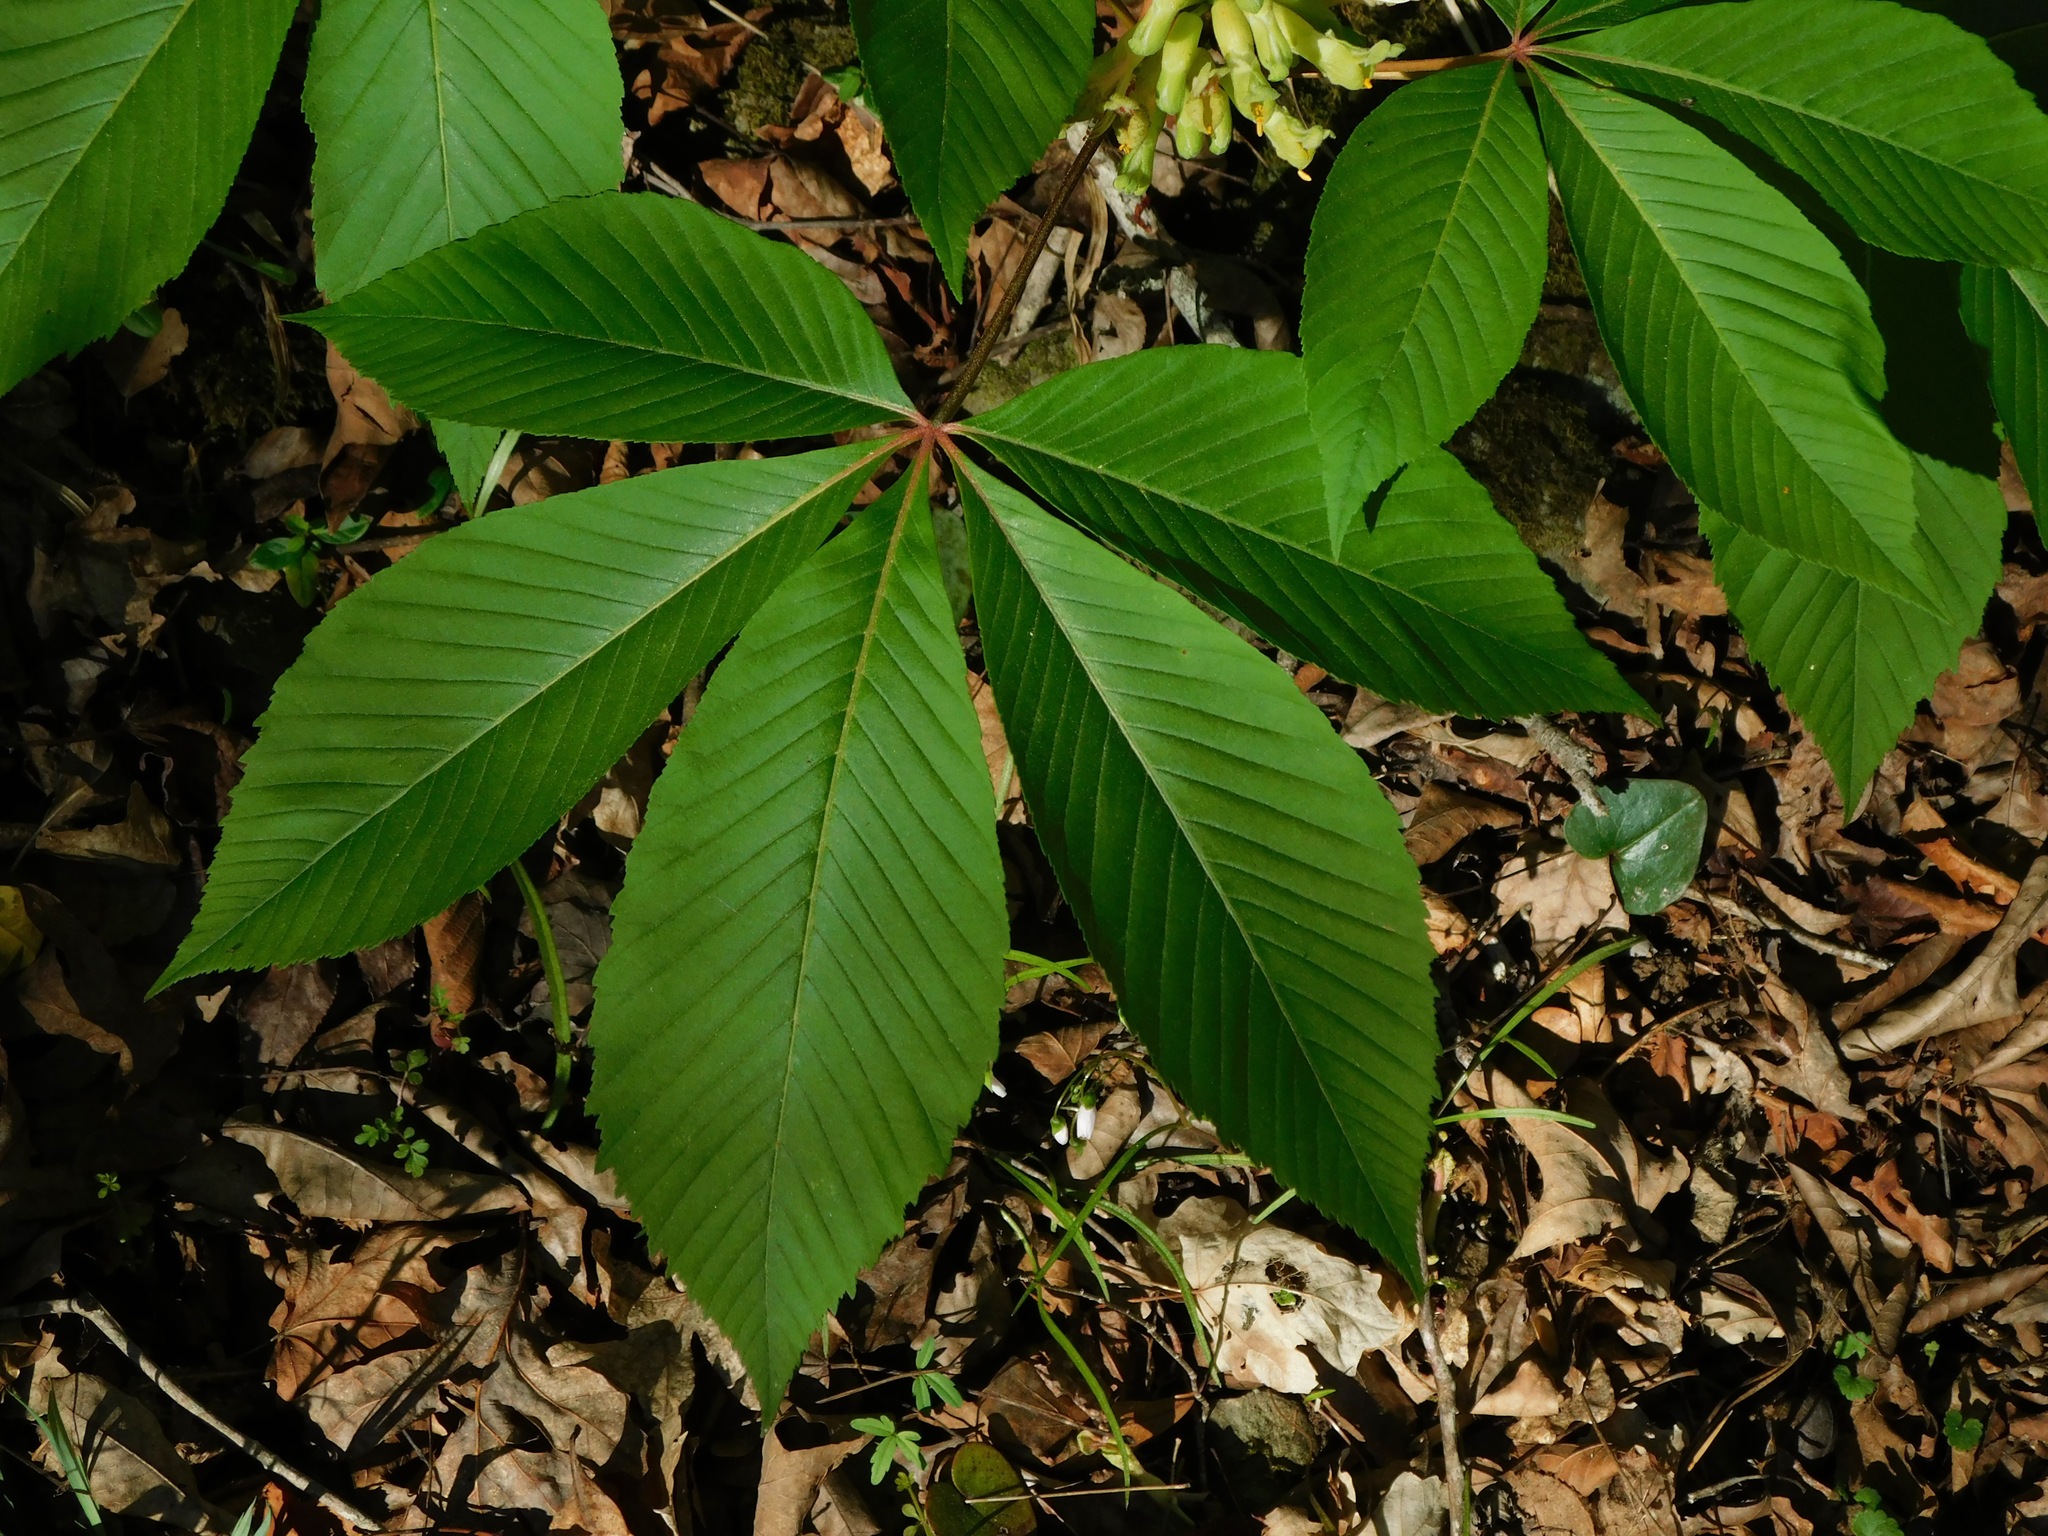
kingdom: Plantae
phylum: Tracheophyta
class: Magnoliopsida
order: Sapindales
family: Sapindaceae
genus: Aesculus
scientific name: Aesculus sylvatica
